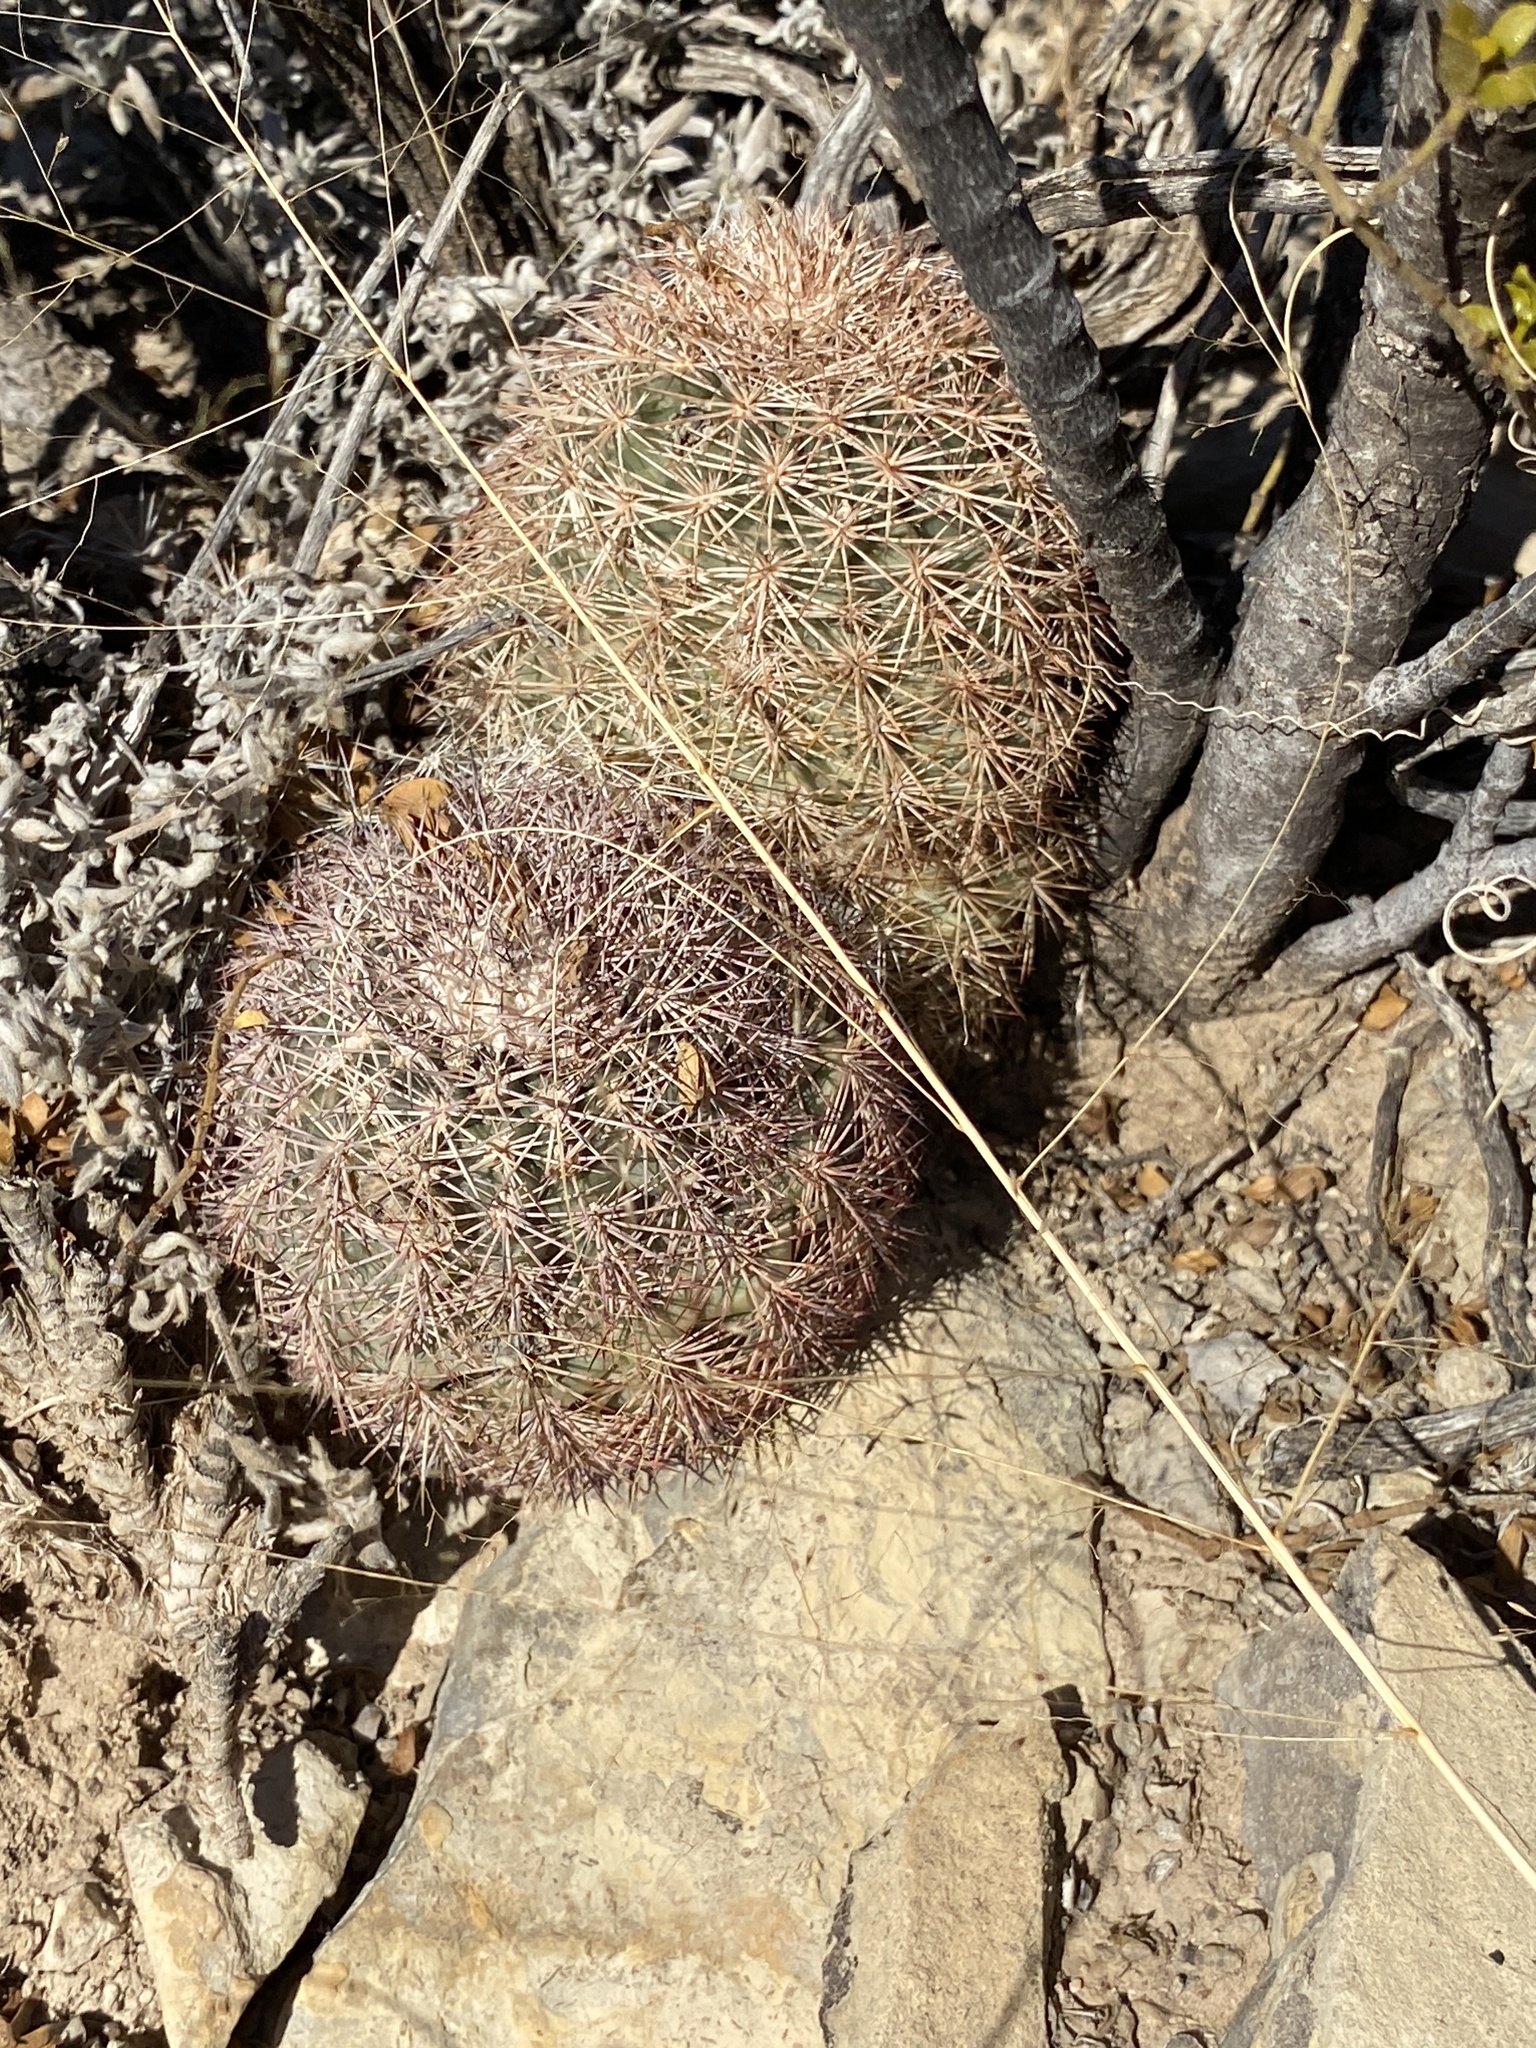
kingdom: Plantae
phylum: Tracheophyta
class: Magnoliopsida
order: Caryophyllales
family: Cactaceae
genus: Echinocereus
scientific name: Echinocereus dasyacanthus
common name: Spiny hedgehog cactus
